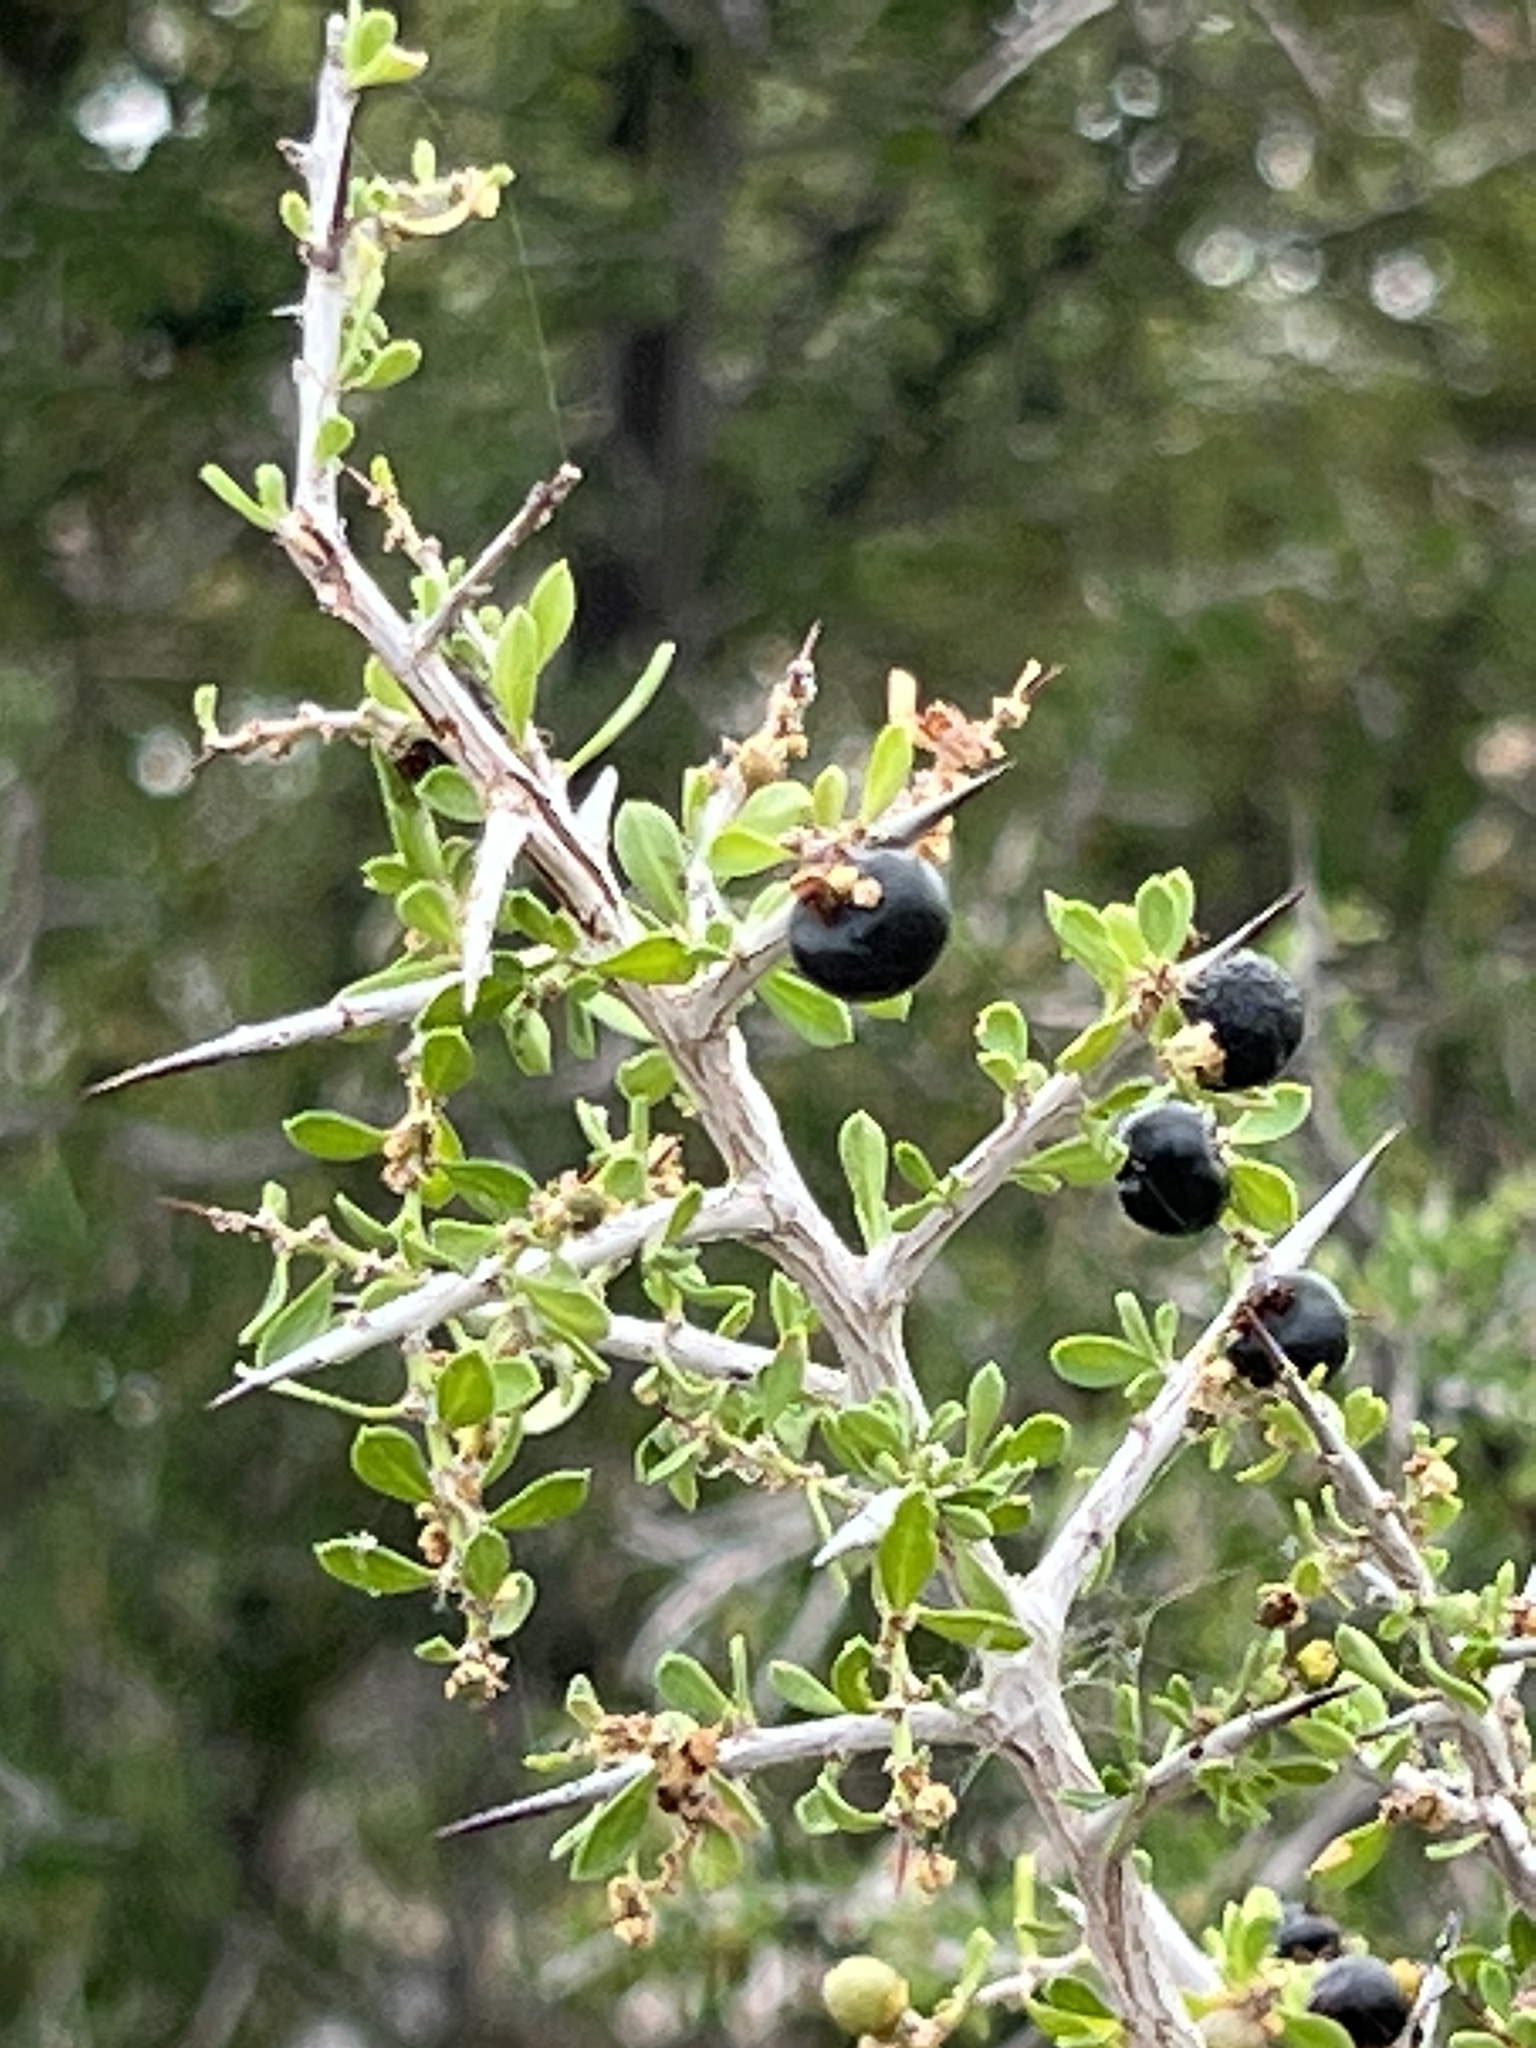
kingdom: Plantae
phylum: Tracheophyta
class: Magnoliopsida
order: Rosales
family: Rhamnaceae
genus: Condalia
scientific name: Condalia viridis
